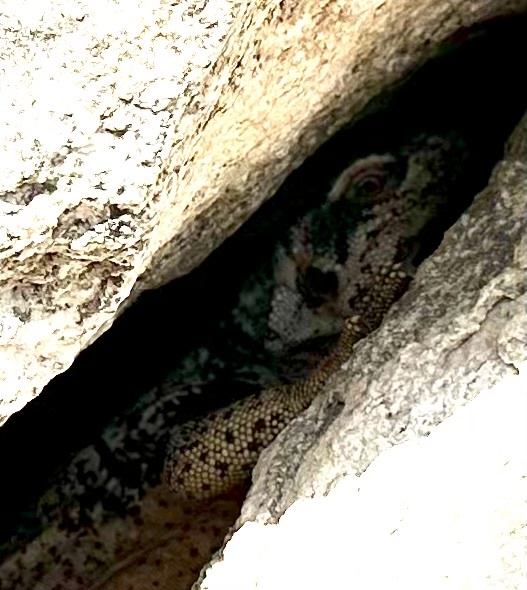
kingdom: Animalia
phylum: Chordata
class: Squamata
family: Iguanidae
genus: Sauromalus
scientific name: Sauromalus ater
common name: Northern chuckwalla
